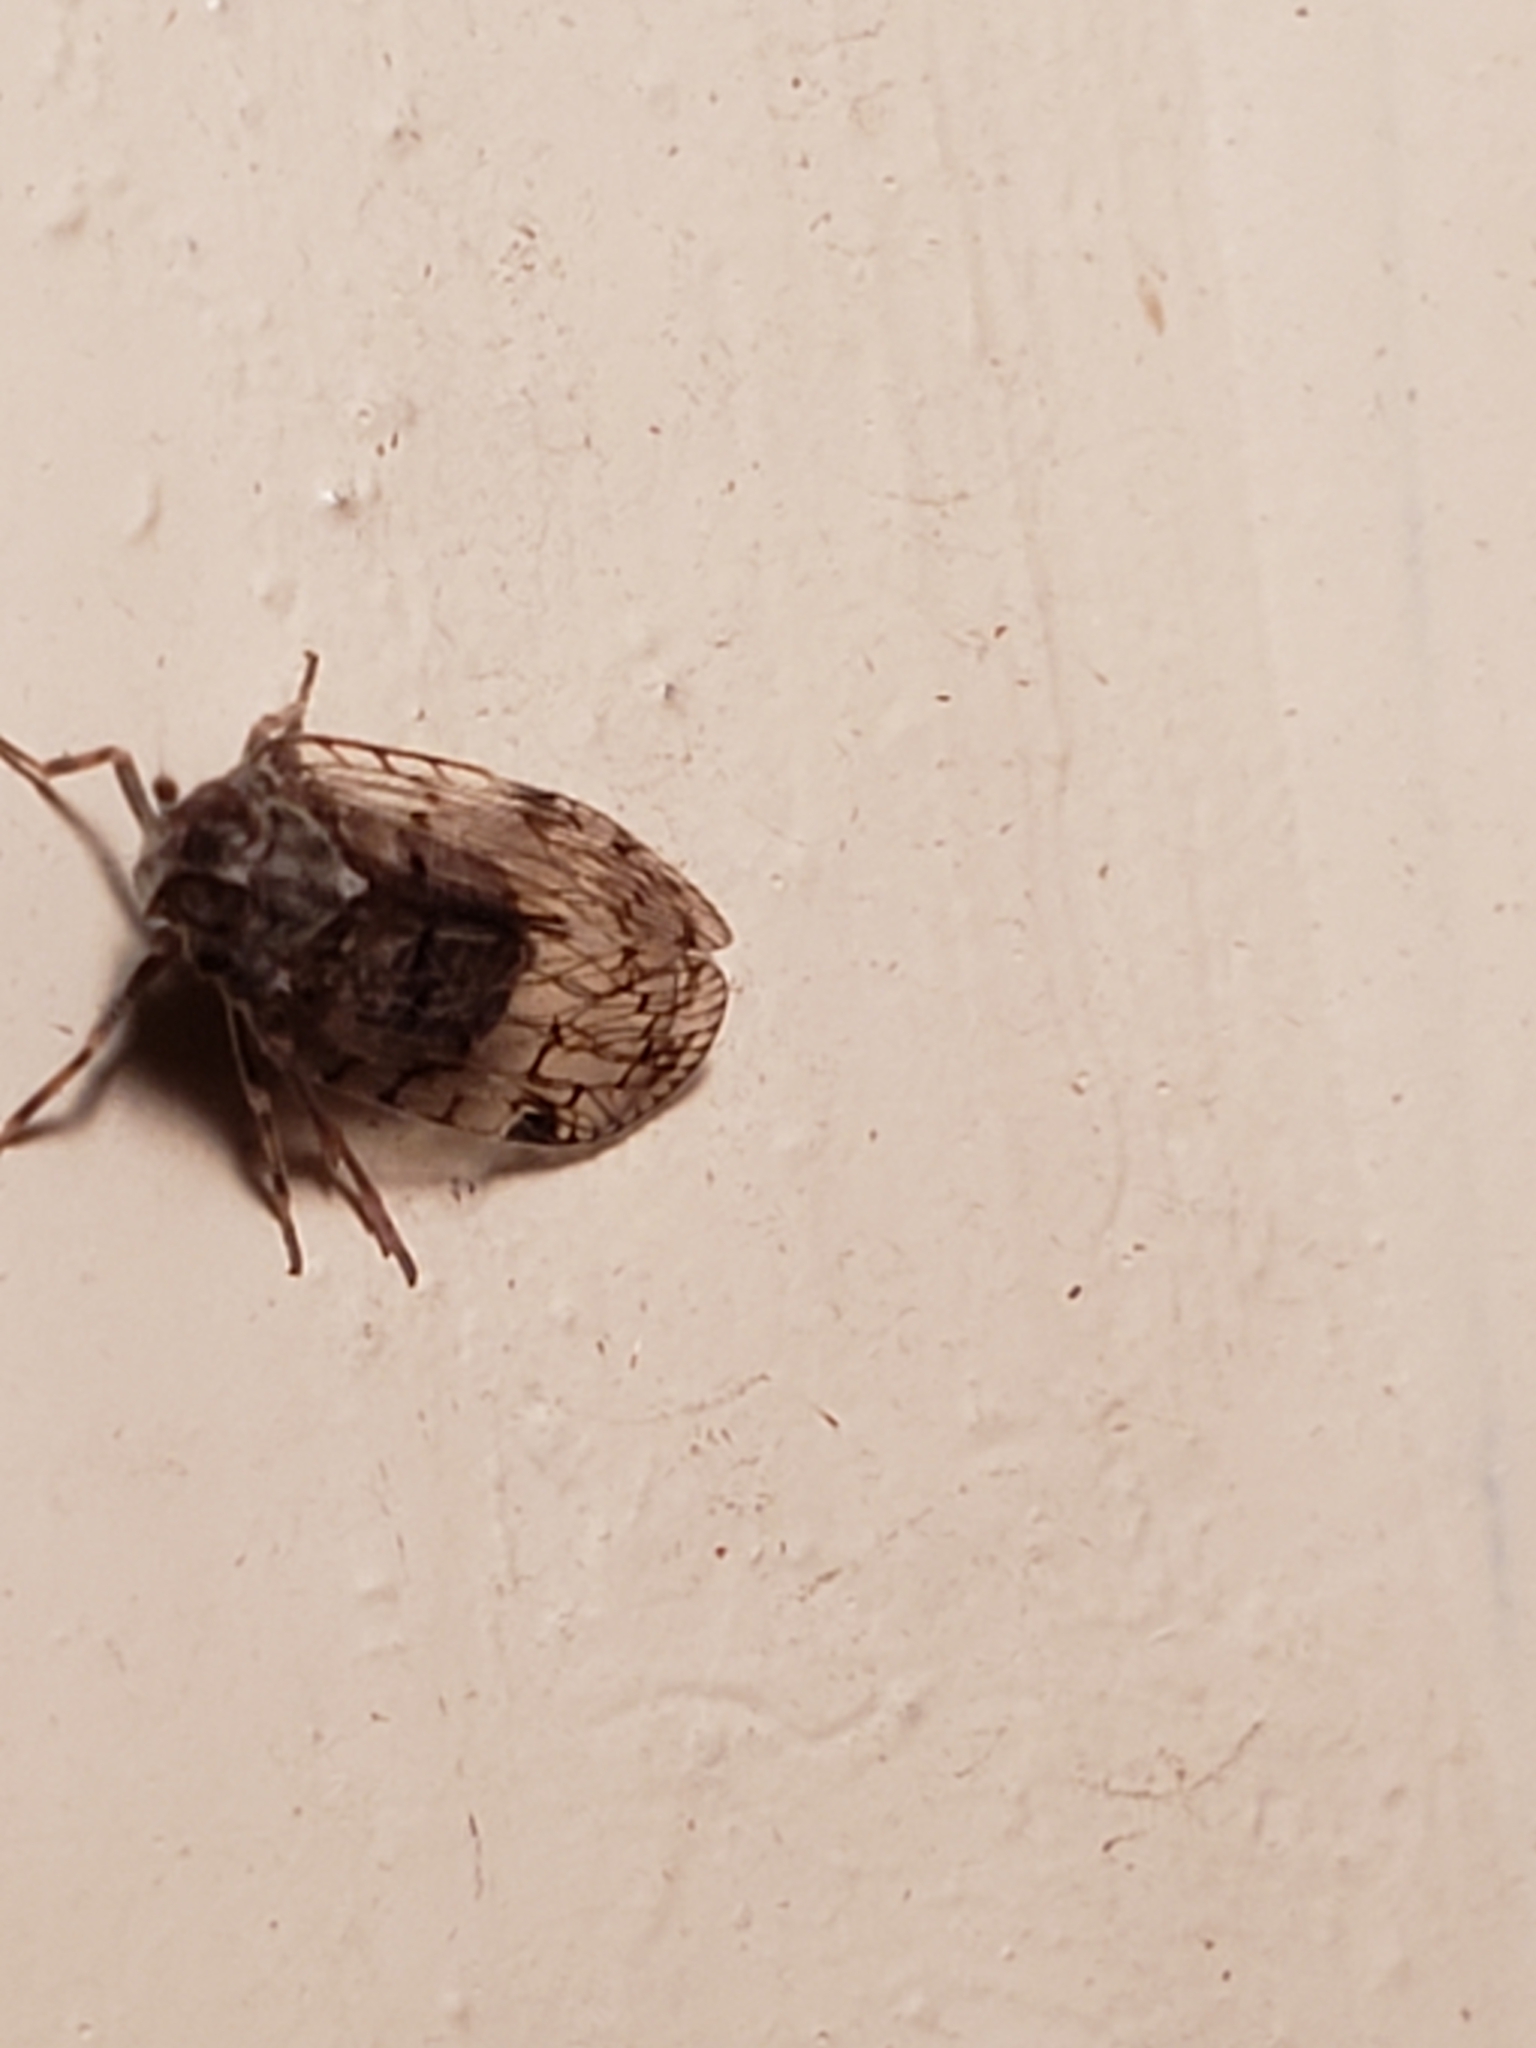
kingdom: Animalia
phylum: Arthropoda
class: Insecta
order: Hemiptera
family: Cixiidae
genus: Melanoliarus
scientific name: Melanoliarus placitus
